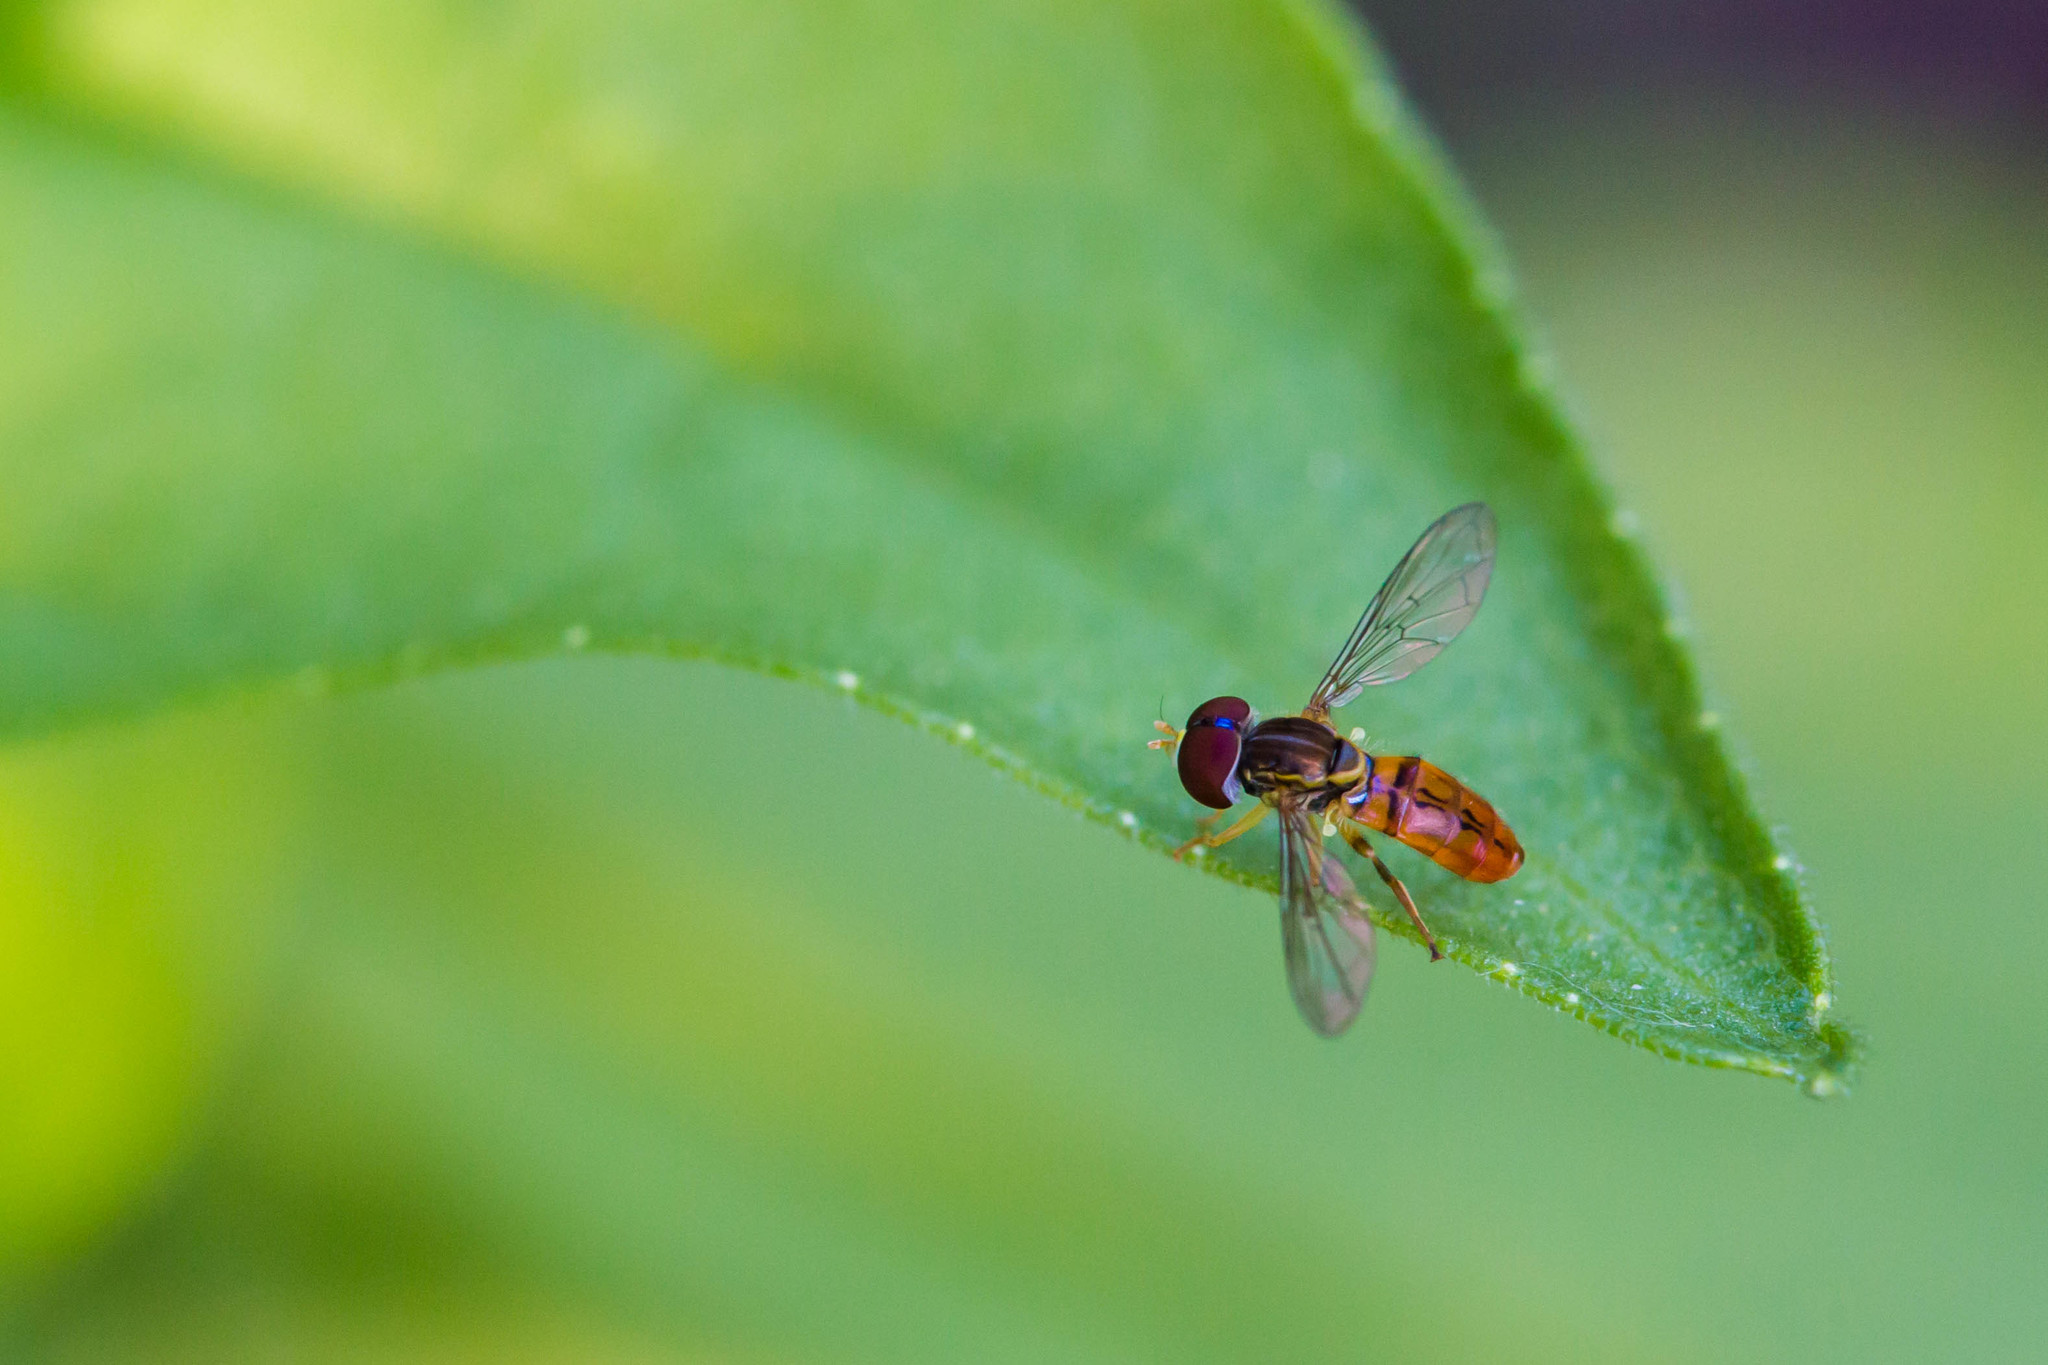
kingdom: Animalia
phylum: Arthropoda
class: Insecta
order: Diptera
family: Syrphidae
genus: Toxomerus
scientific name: Toxomerus boscii
